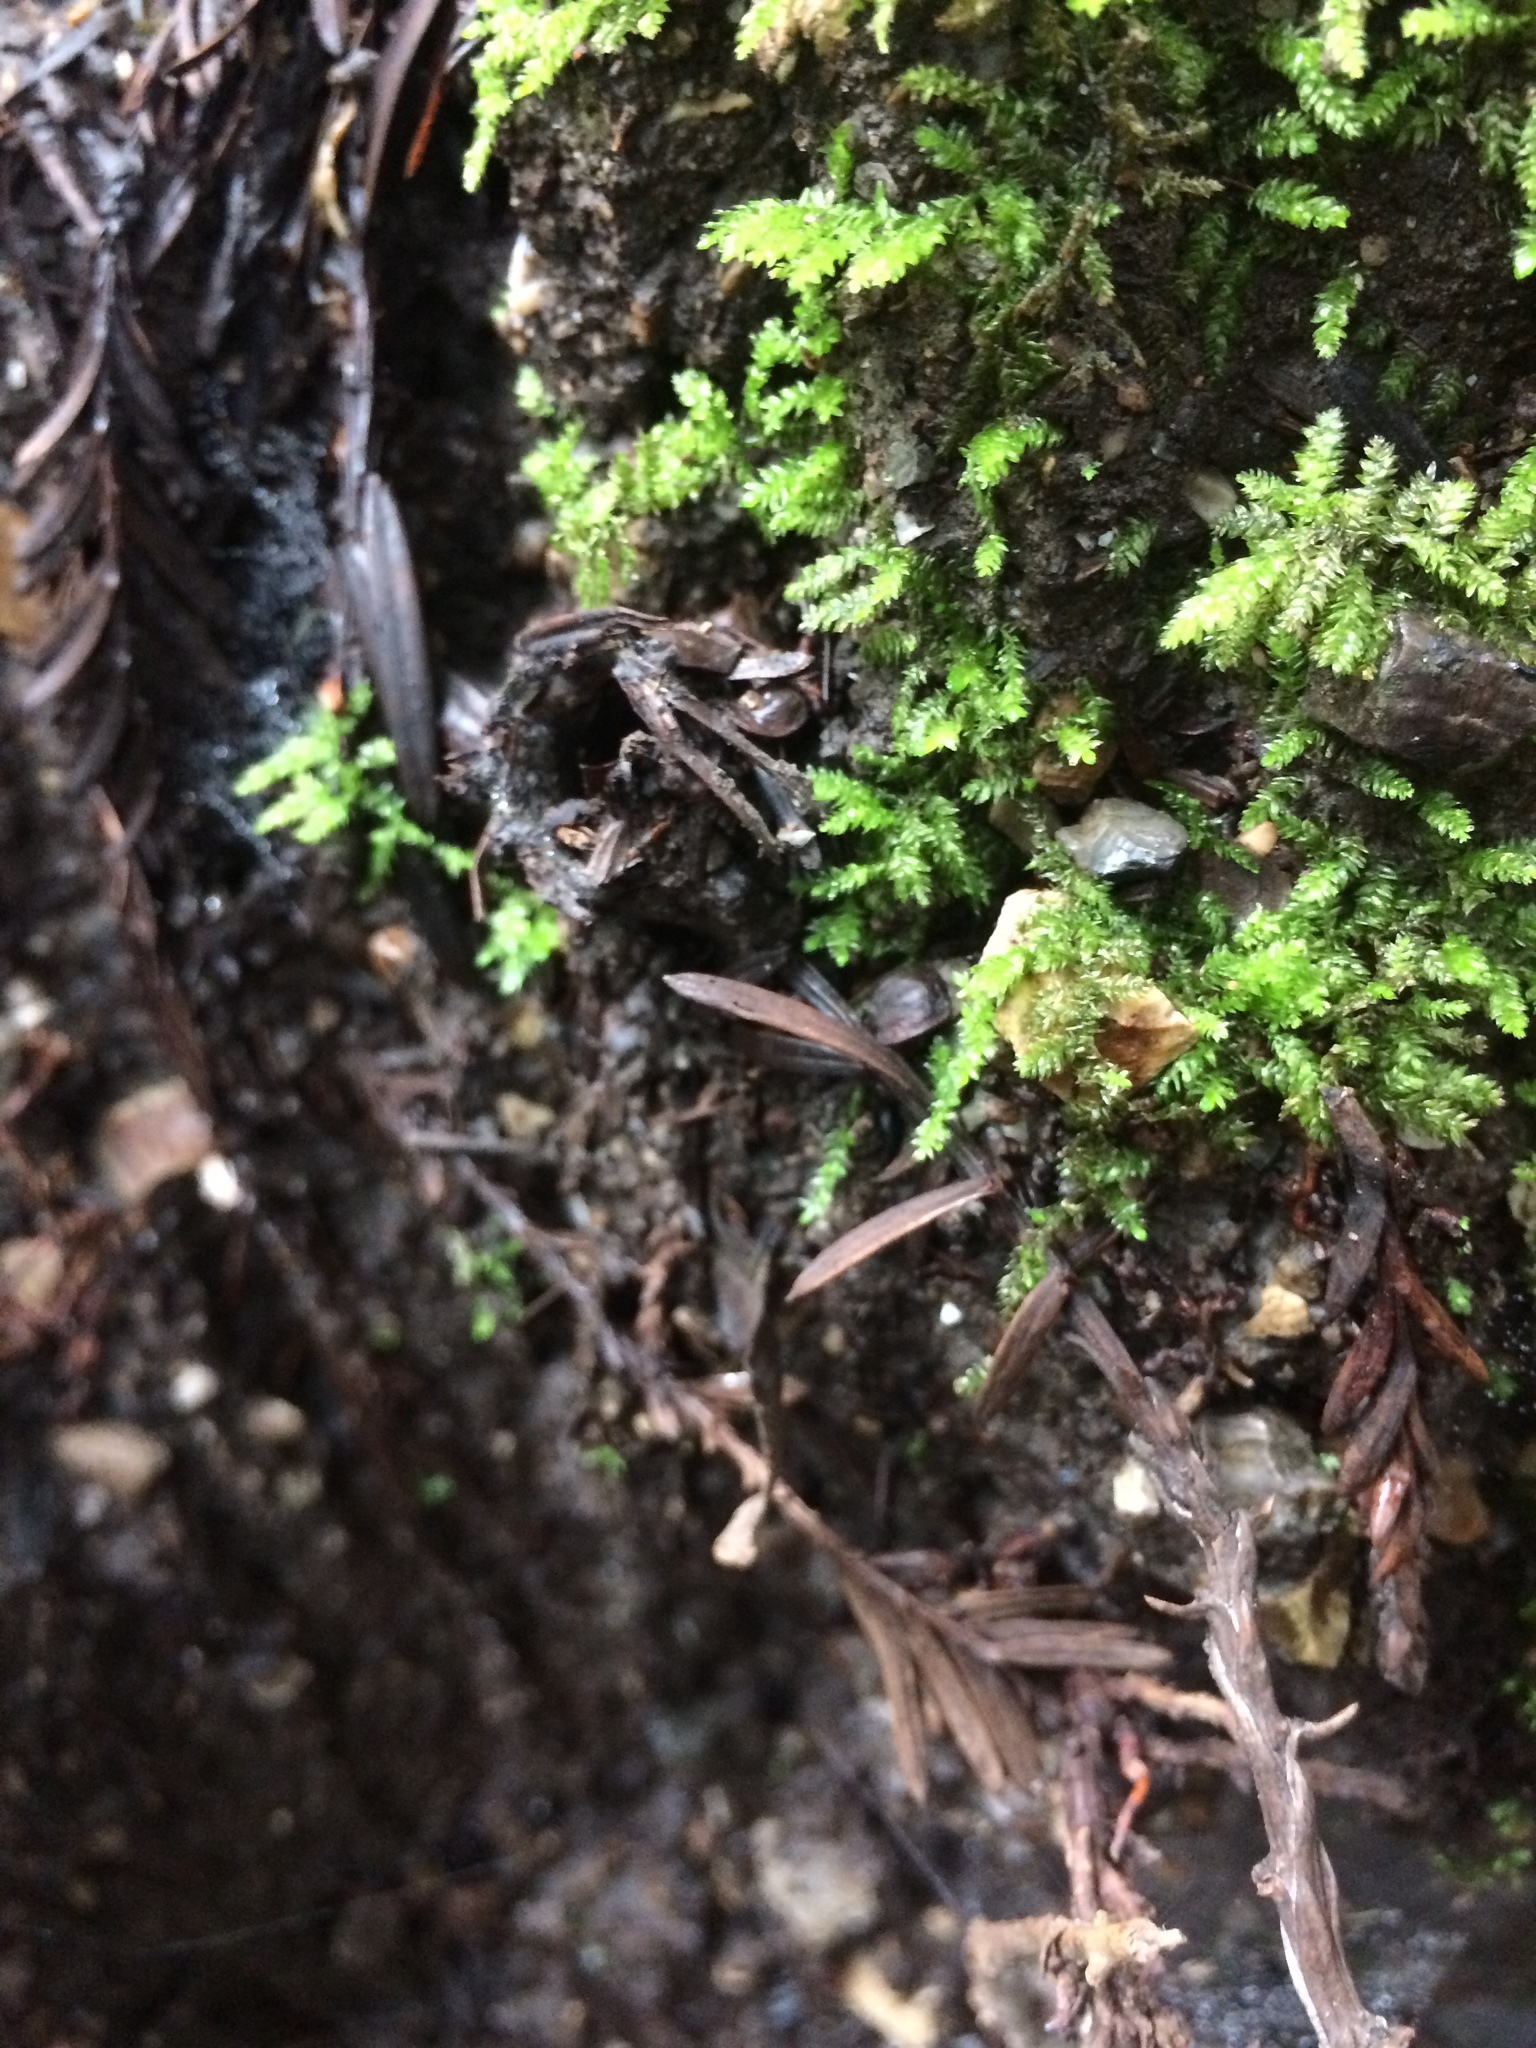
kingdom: Animalia
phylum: Arthropoda
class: Arachnida
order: Araneae
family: Antrodiaetidae
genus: Atypoides
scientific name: Atypoides riversi
